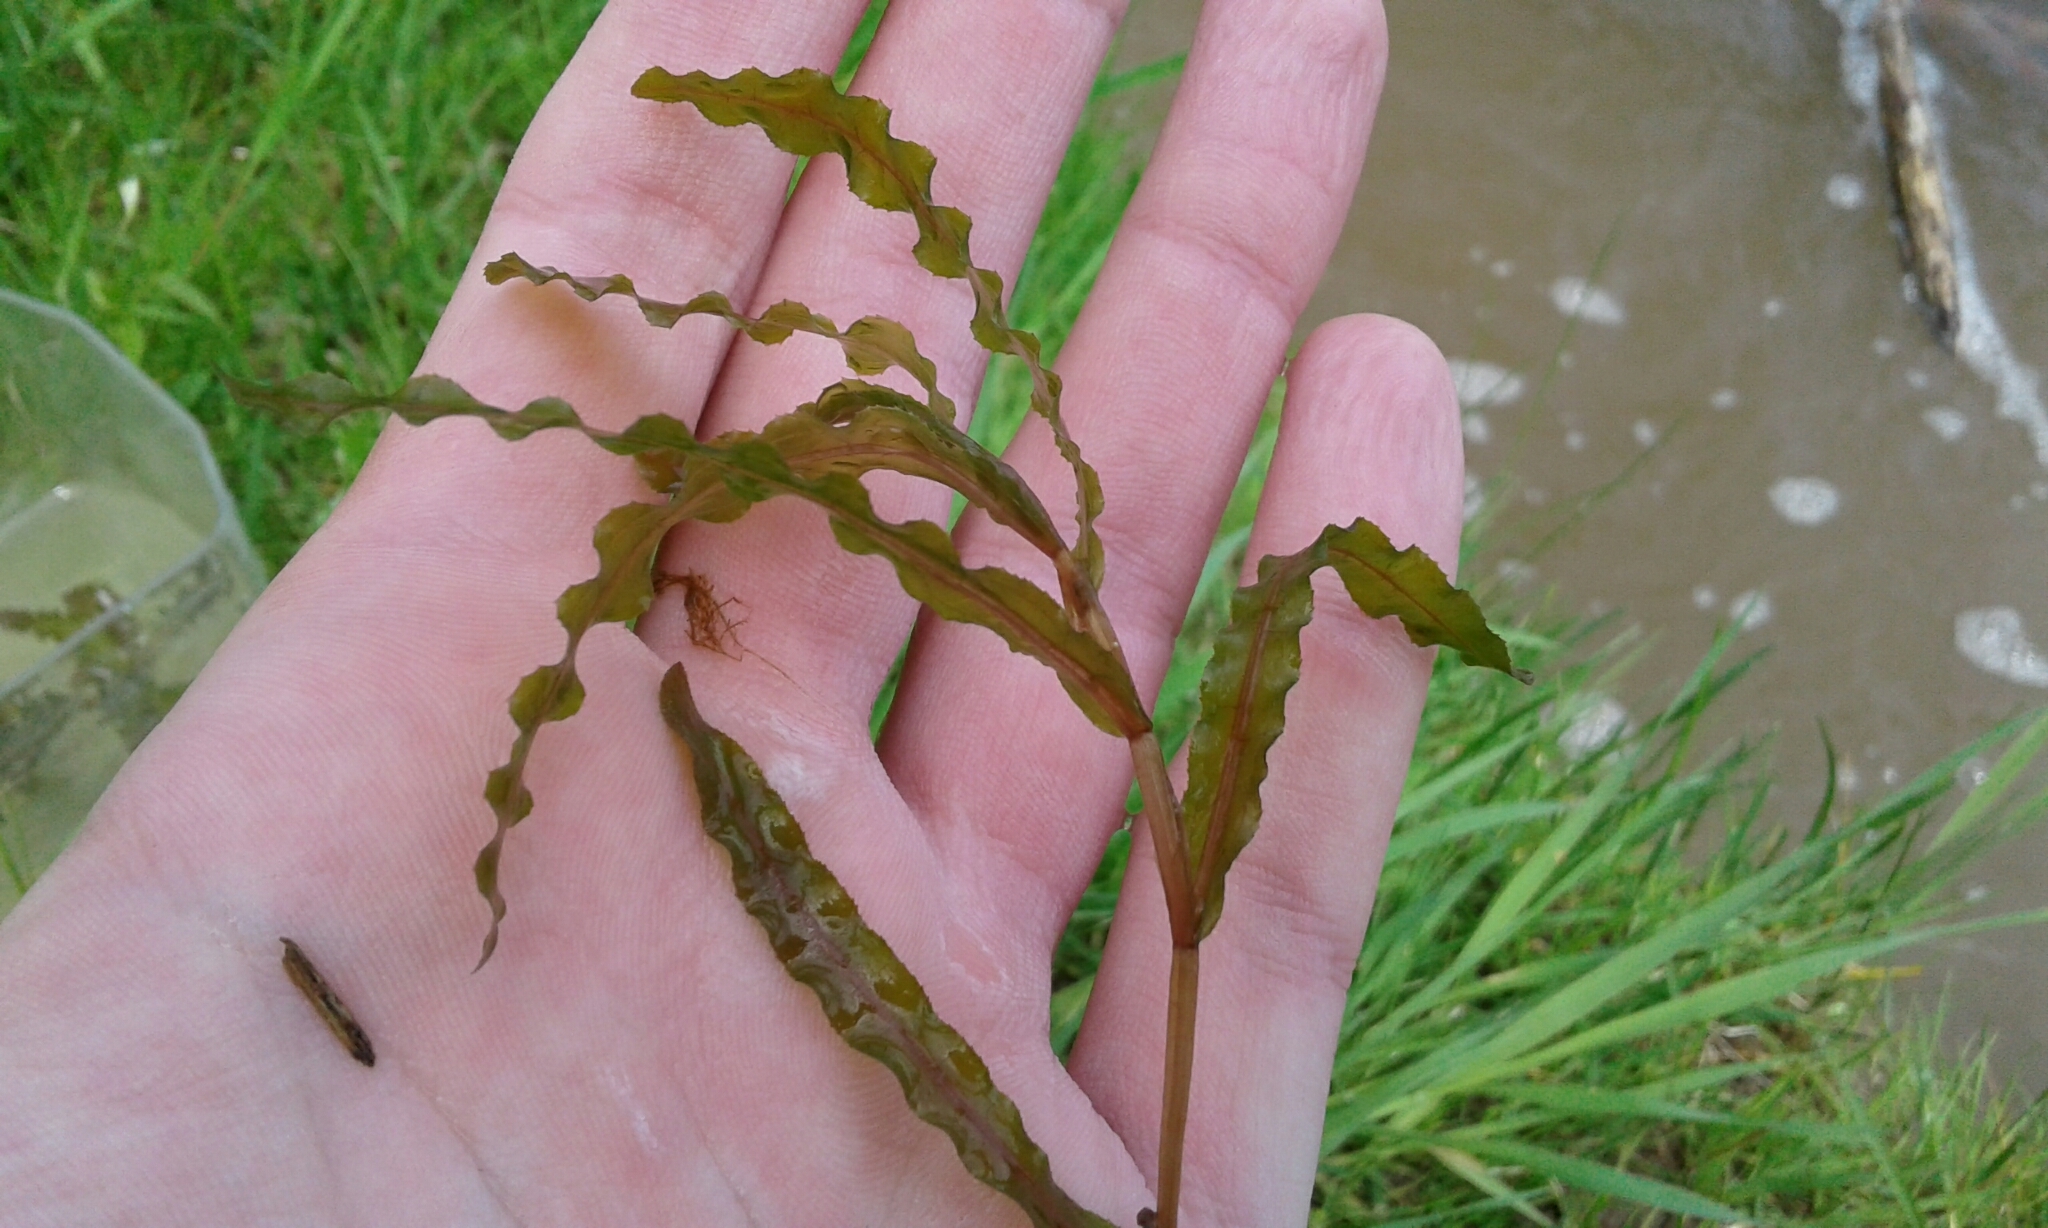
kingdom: Plantae
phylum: Tracheophyta
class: Liliopsida
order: Alismatales
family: Potamogetonaceae
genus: Potamogeton
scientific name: Potamogeton crispus
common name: Curled pondweed
